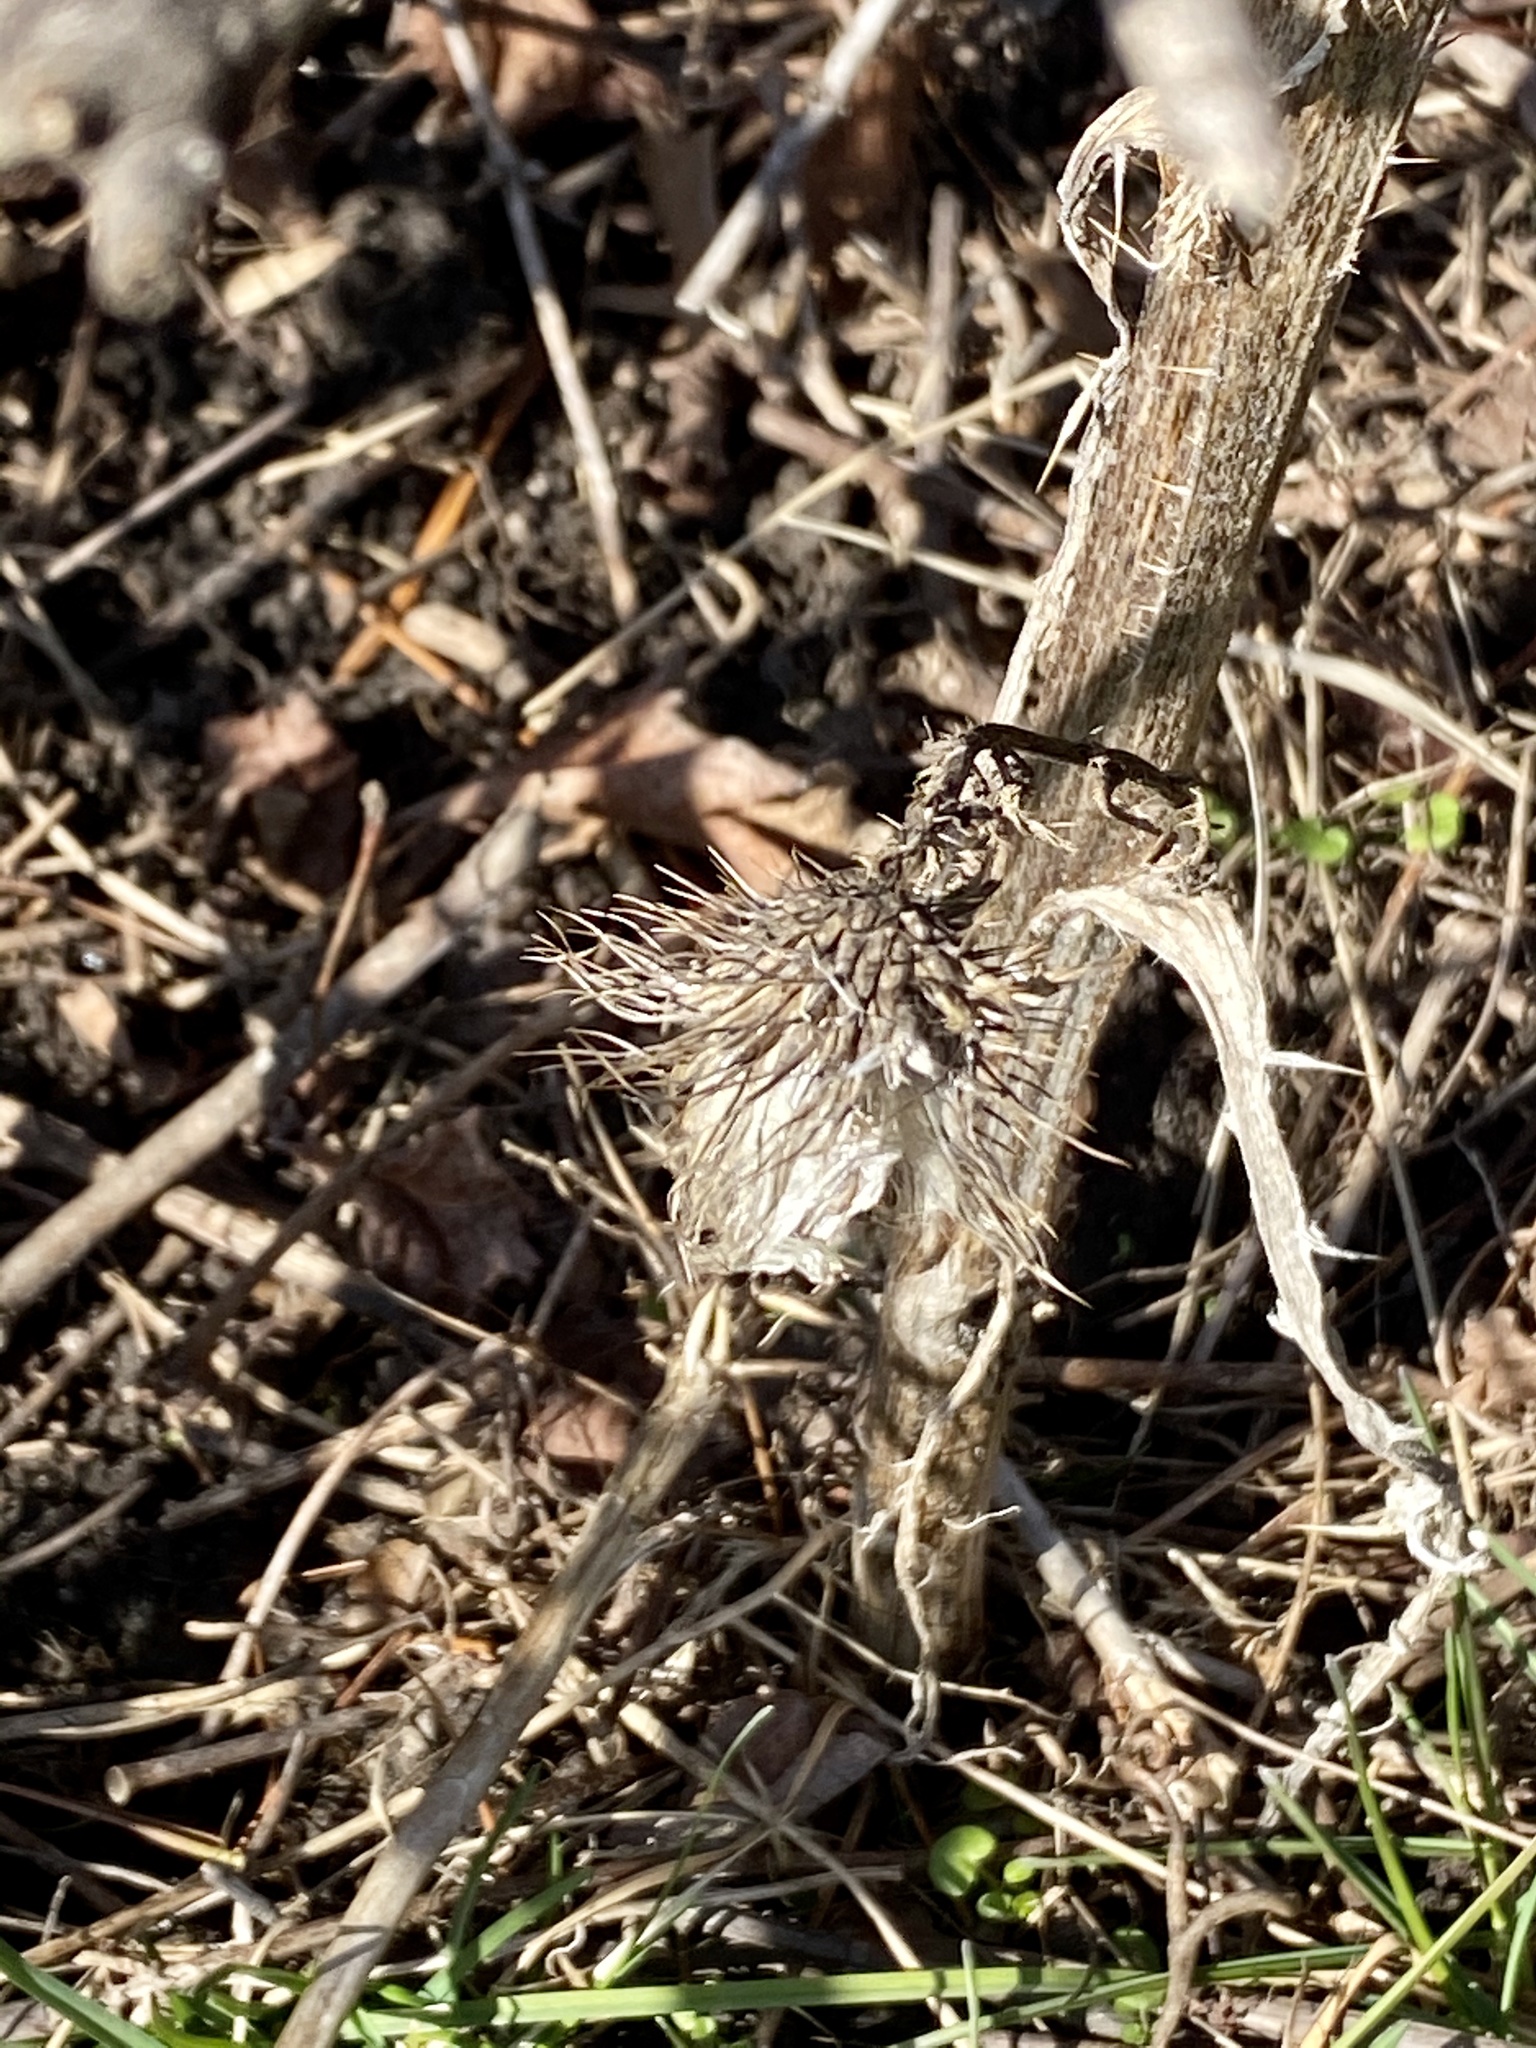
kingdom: Plantae
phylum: Tracheophyta
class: Magnoliopsida
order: Asterales
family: Asteraceae
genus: Cirsium
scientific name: Cirsium vulgare
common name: Bull thistle
